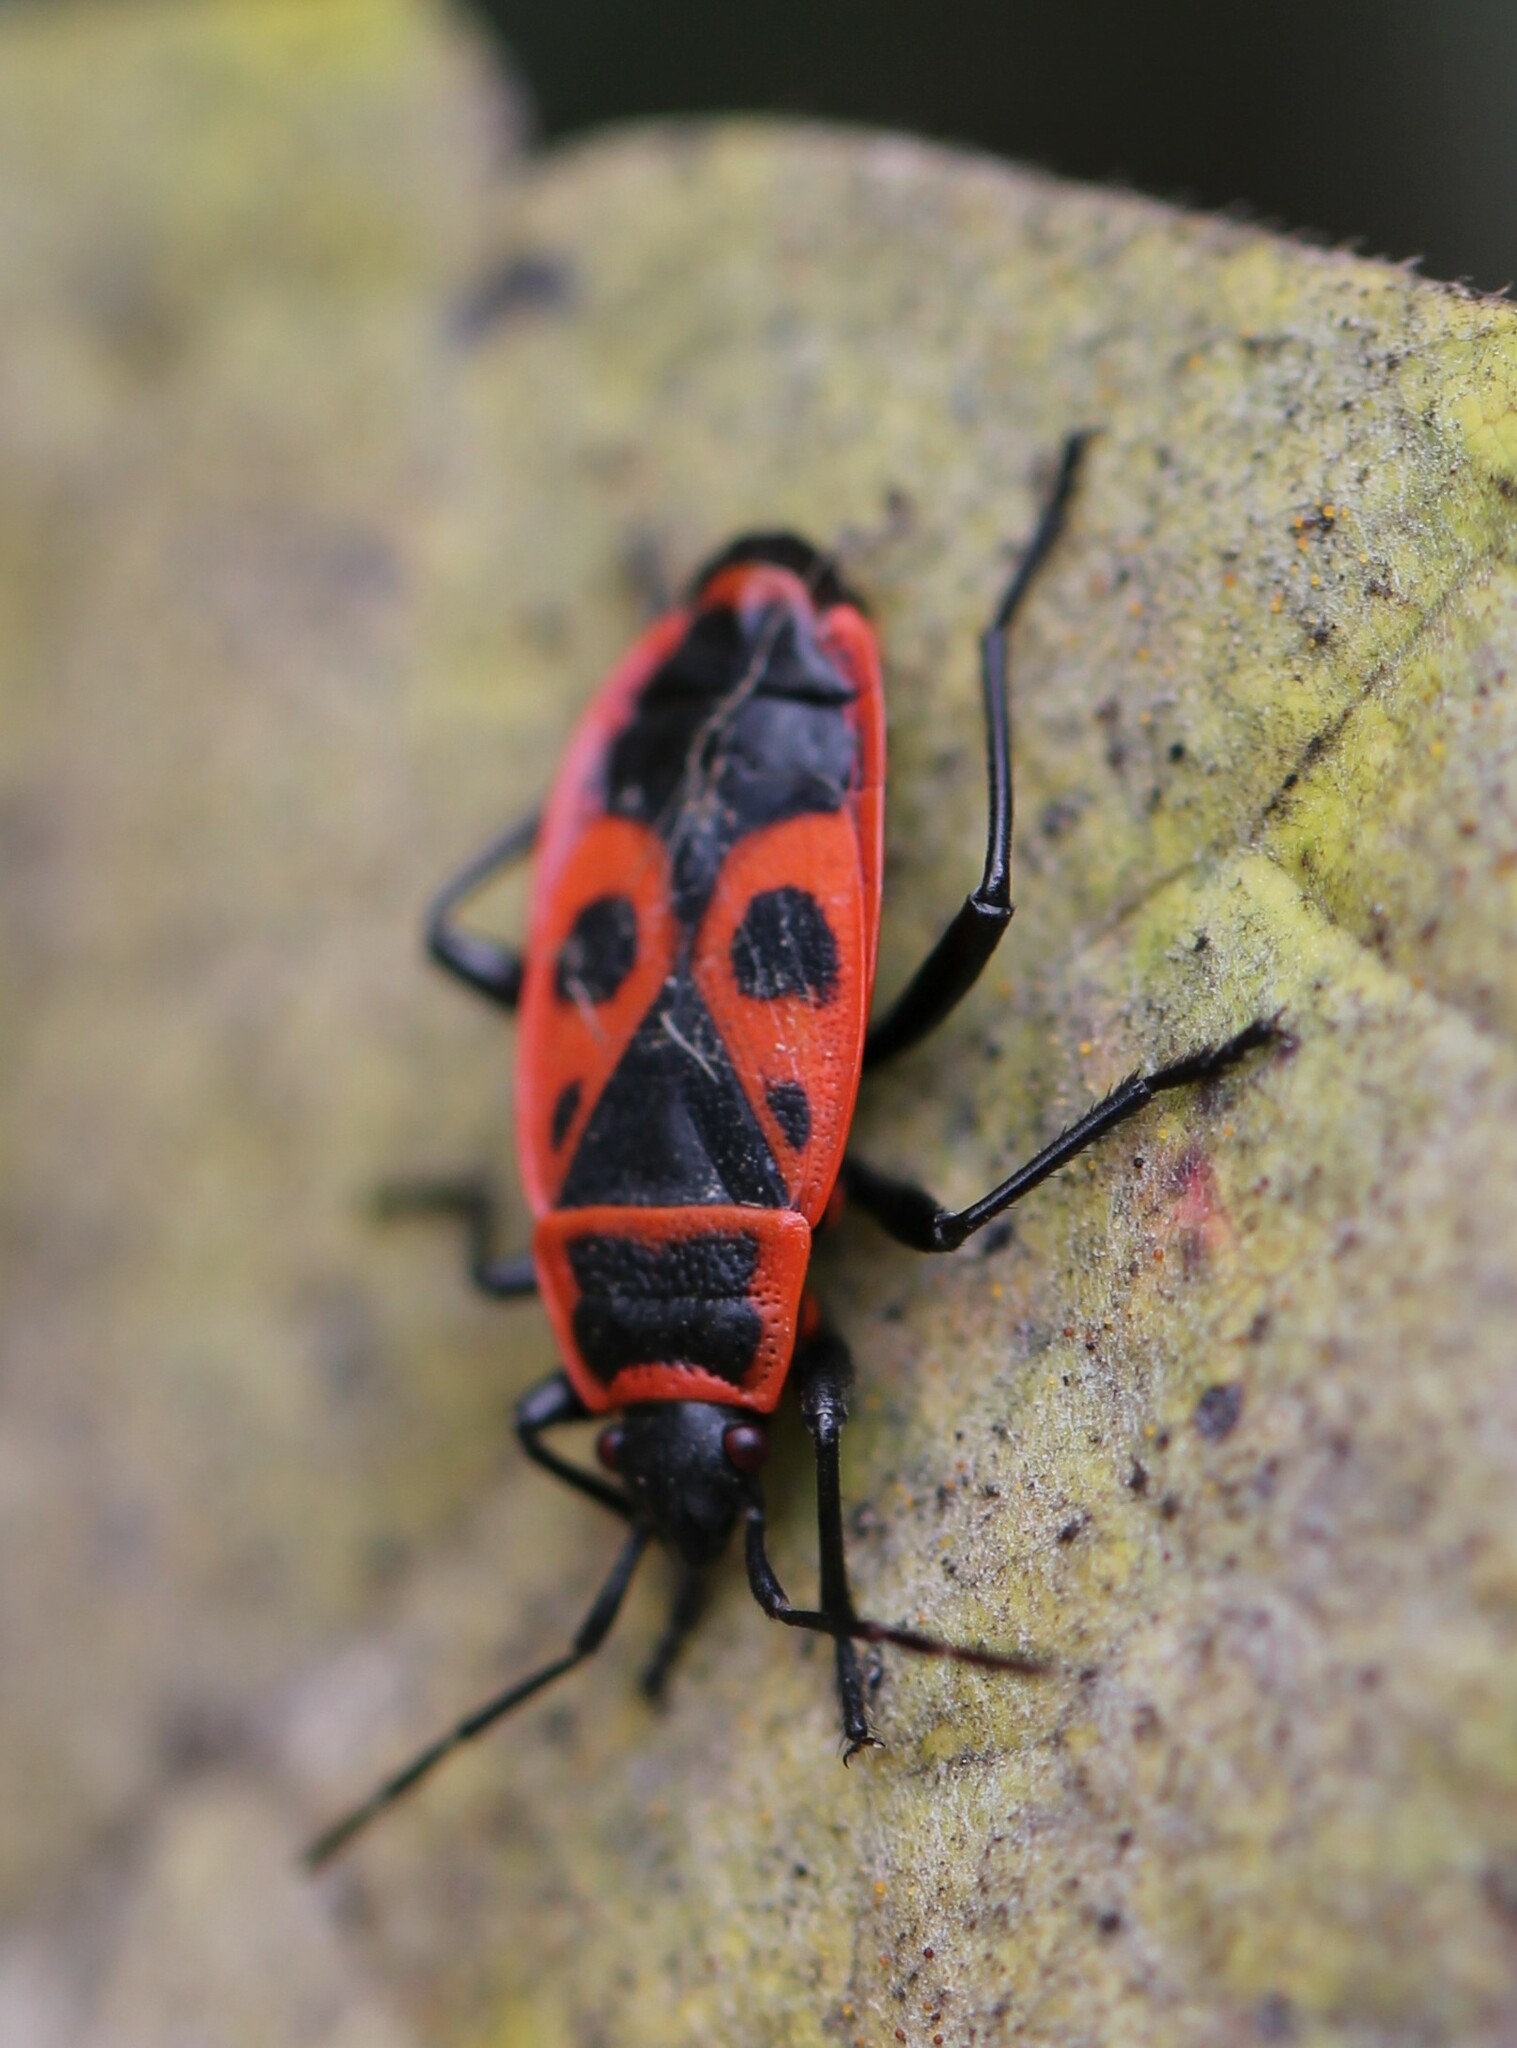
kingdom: Animalia
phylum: Arthropoda
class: Insecta
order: Hemiptera
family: Pyrrhocoridae
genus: Pyrrhocoris
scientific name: Pyrrhocoris apterus
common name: Firebug
